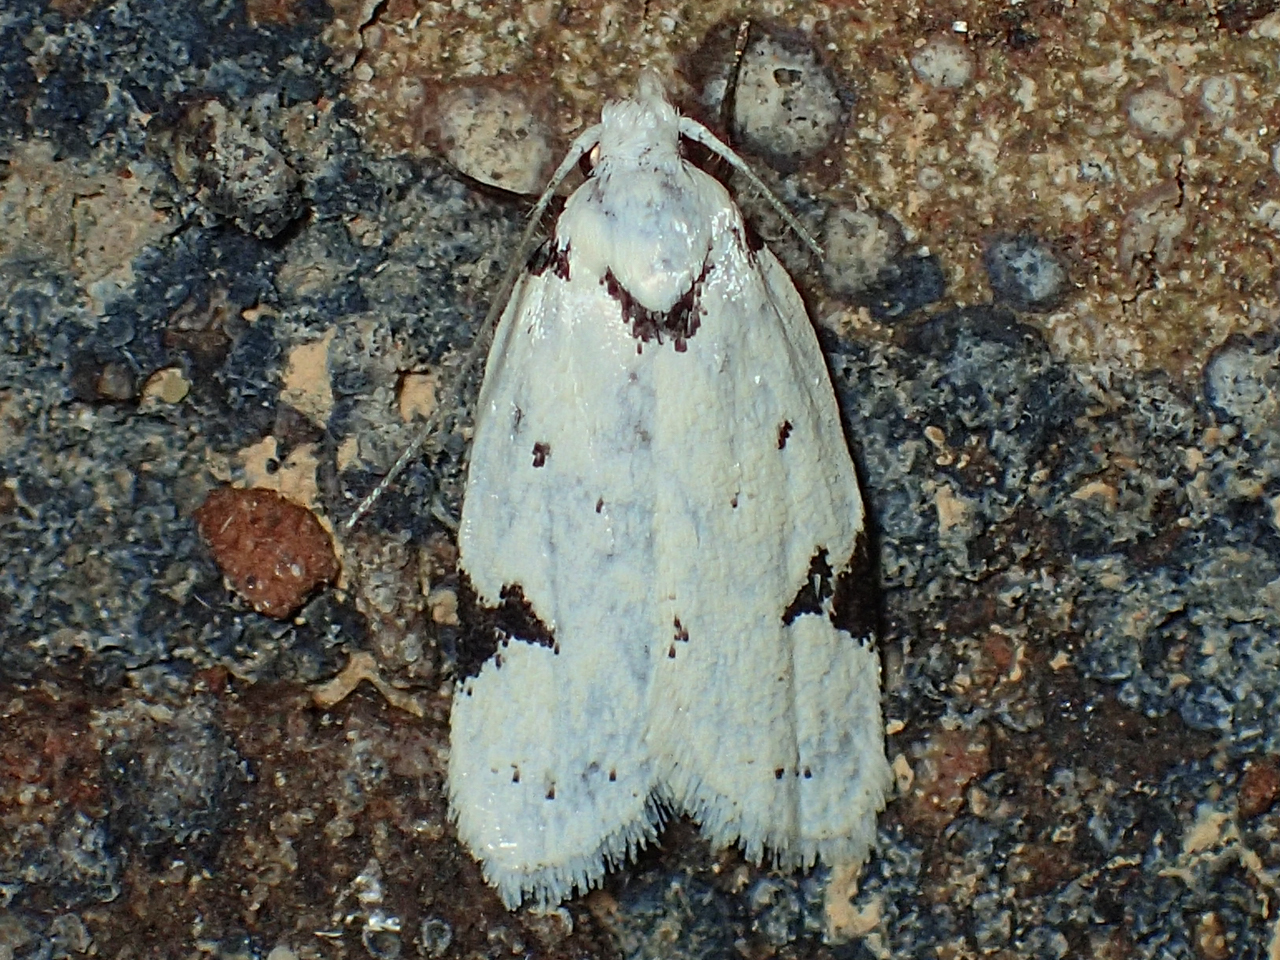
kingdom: Animalia
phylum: Arthropoda
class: Insecta
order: Lepidoptera
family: Oecophoridae
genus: Inga
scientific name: Inga sparsiciliella
